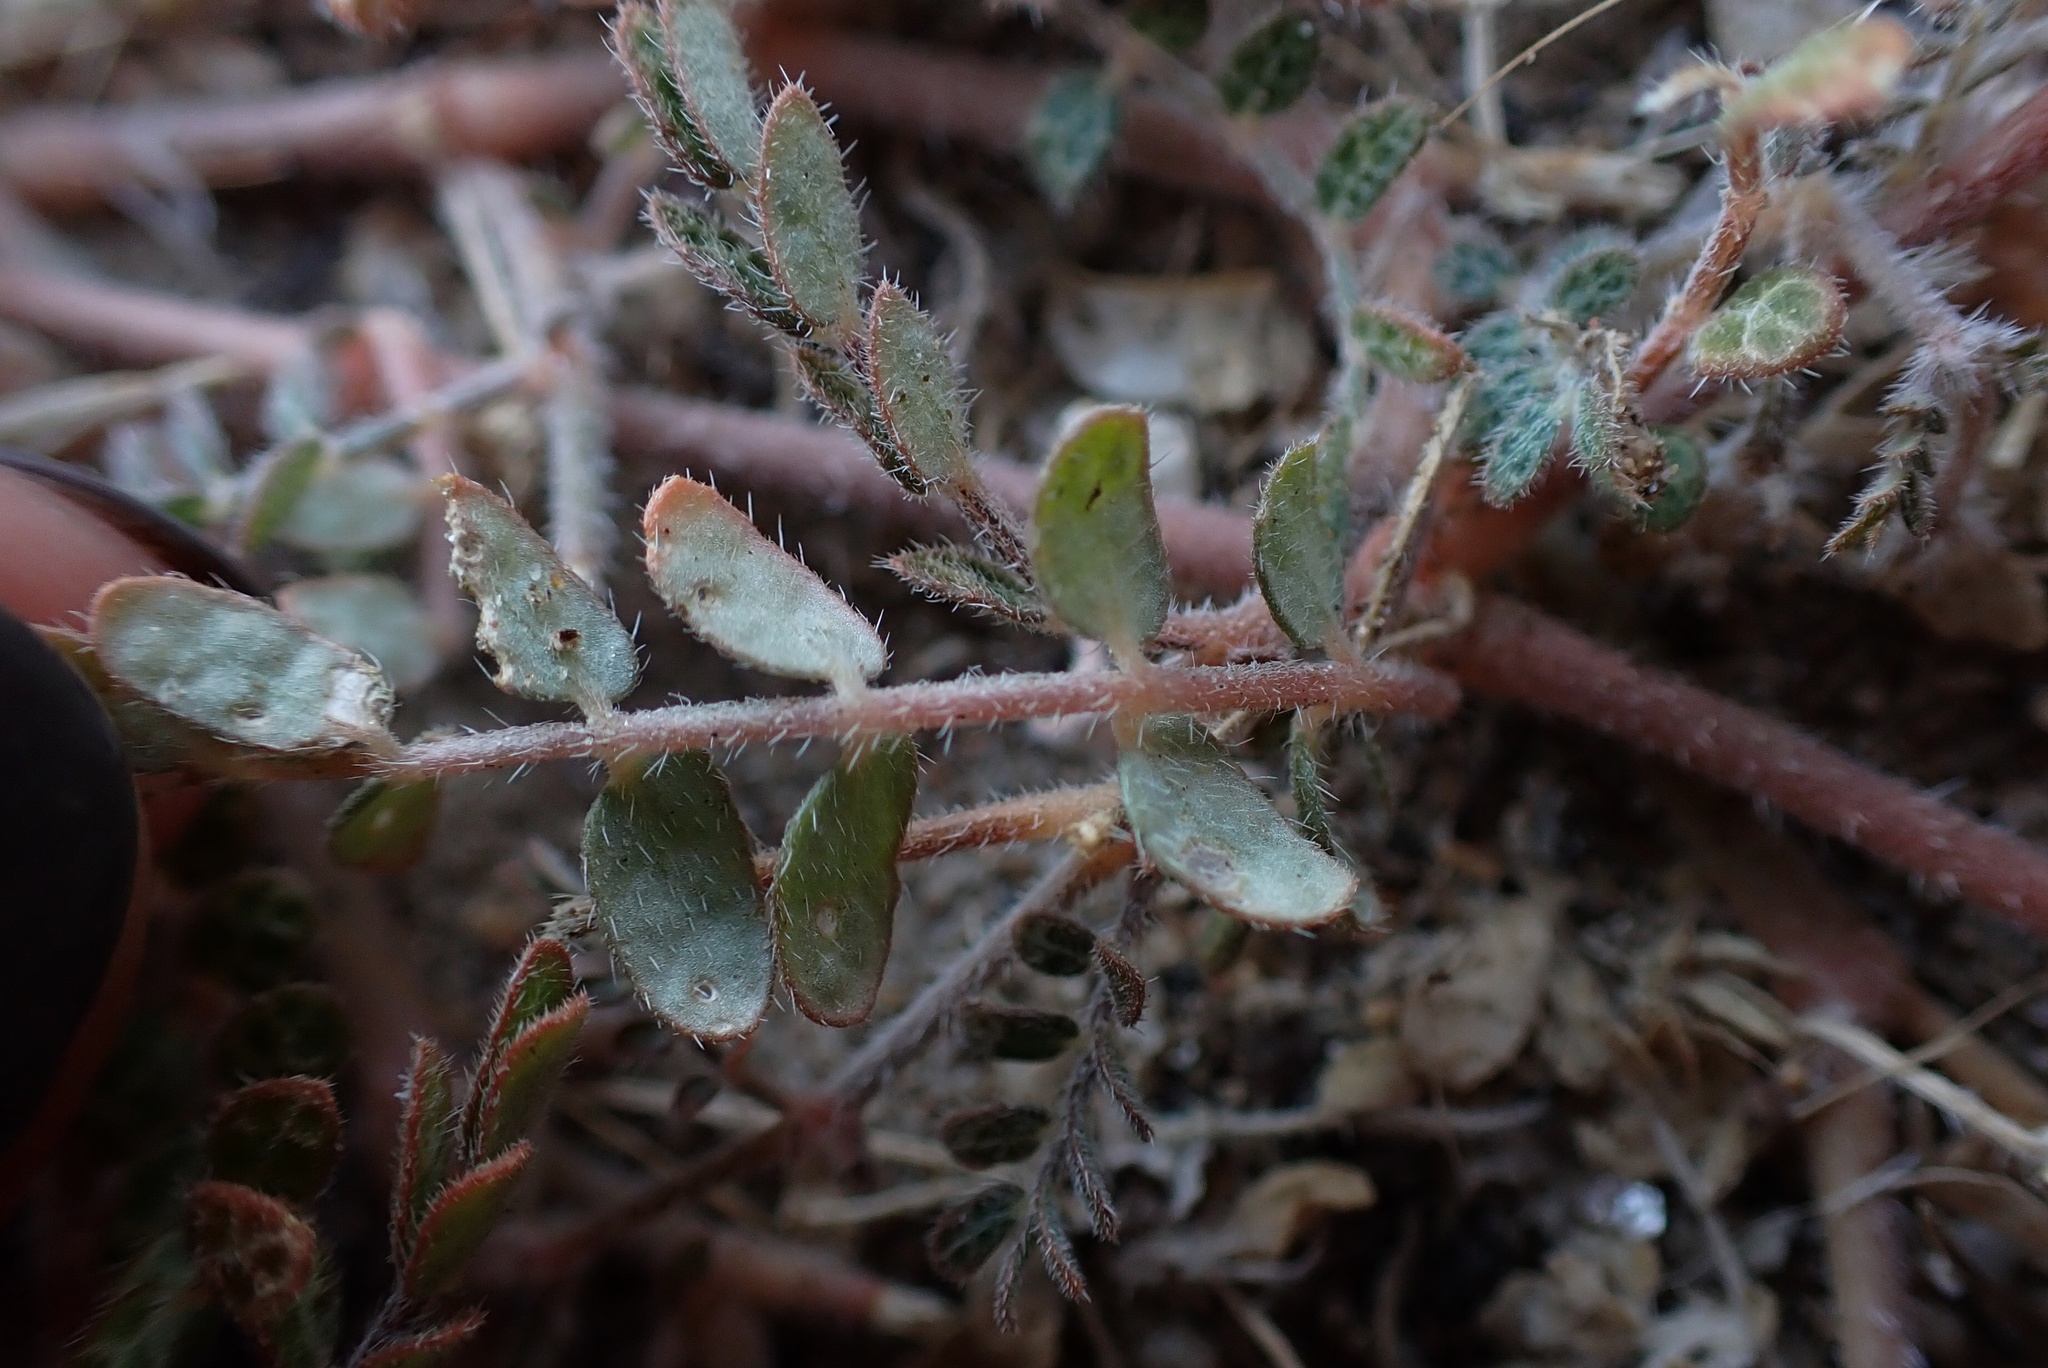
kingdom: Plantae
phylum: Tracheophyta
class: Magnoliopsida
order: Zygophyllales
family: Zygophyllaceae
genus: Kallstroemia
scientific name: Kallstroemia californica
